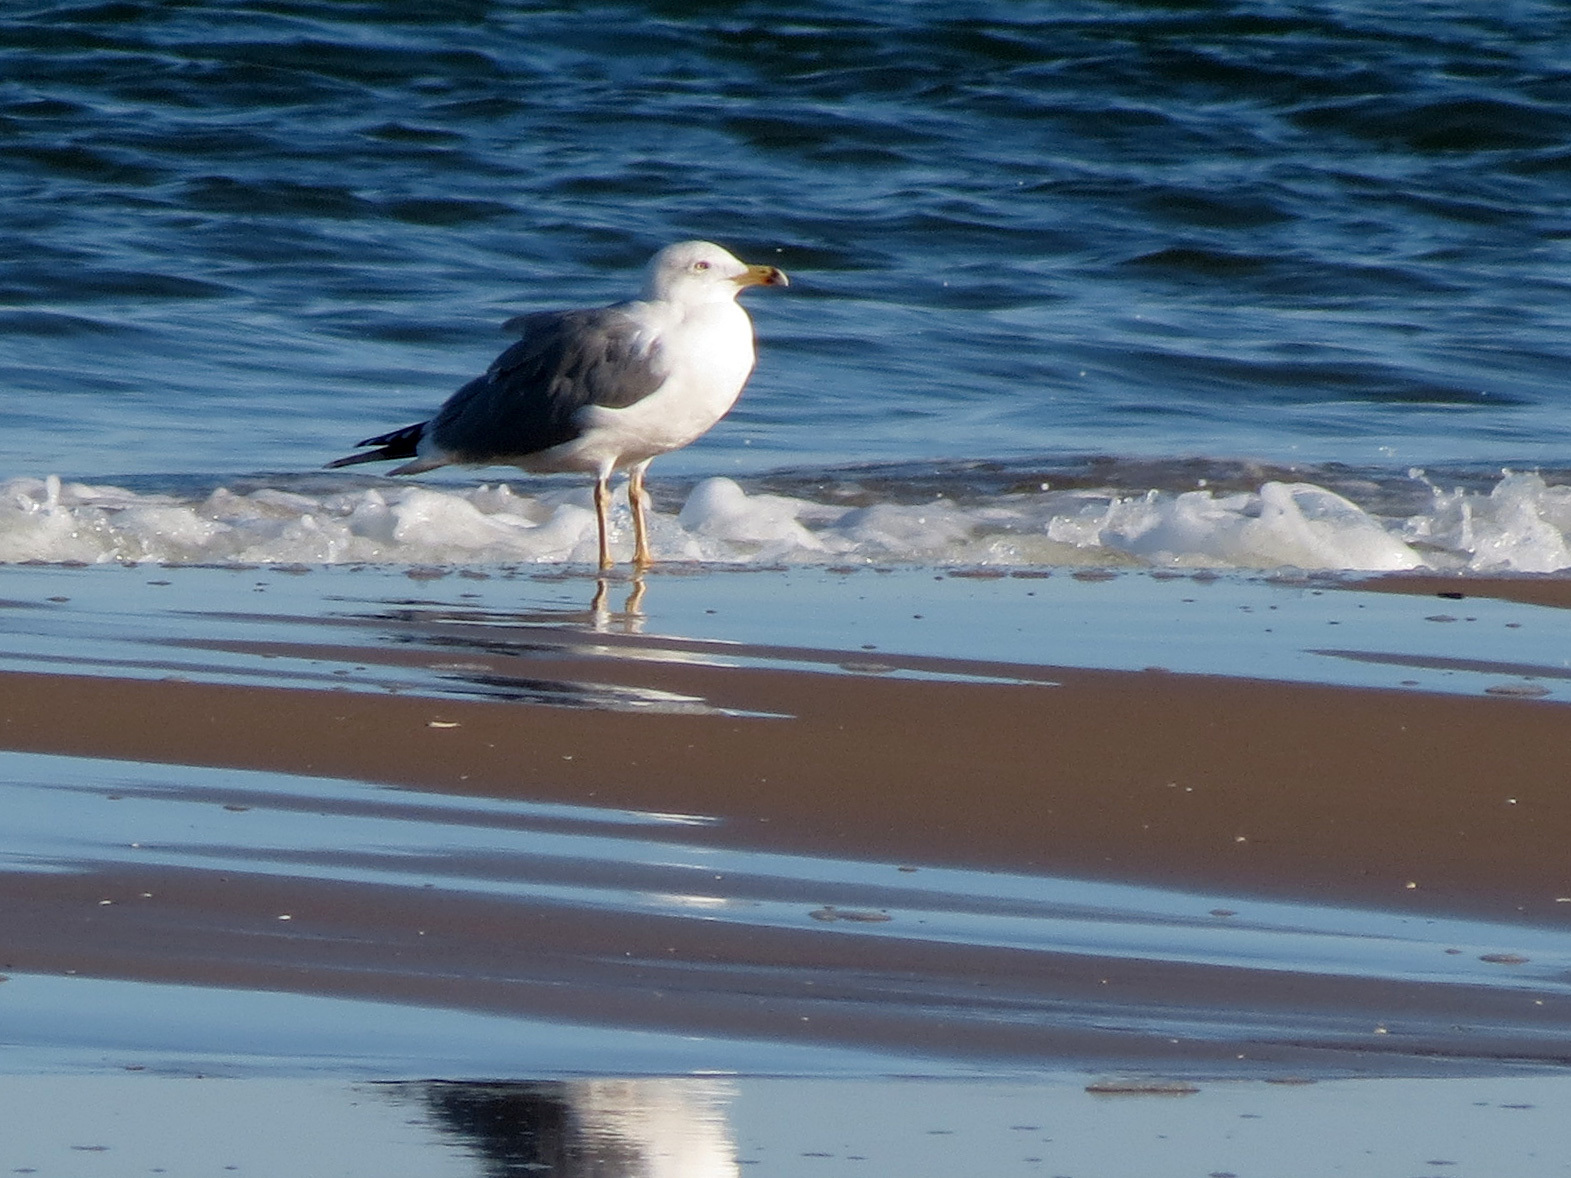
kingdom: Animalia
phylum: Chordata
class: Aves
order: Charadriiformes
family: Laridae
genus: Larus
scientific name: Larus michahellis
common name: Yellow-legged gull
